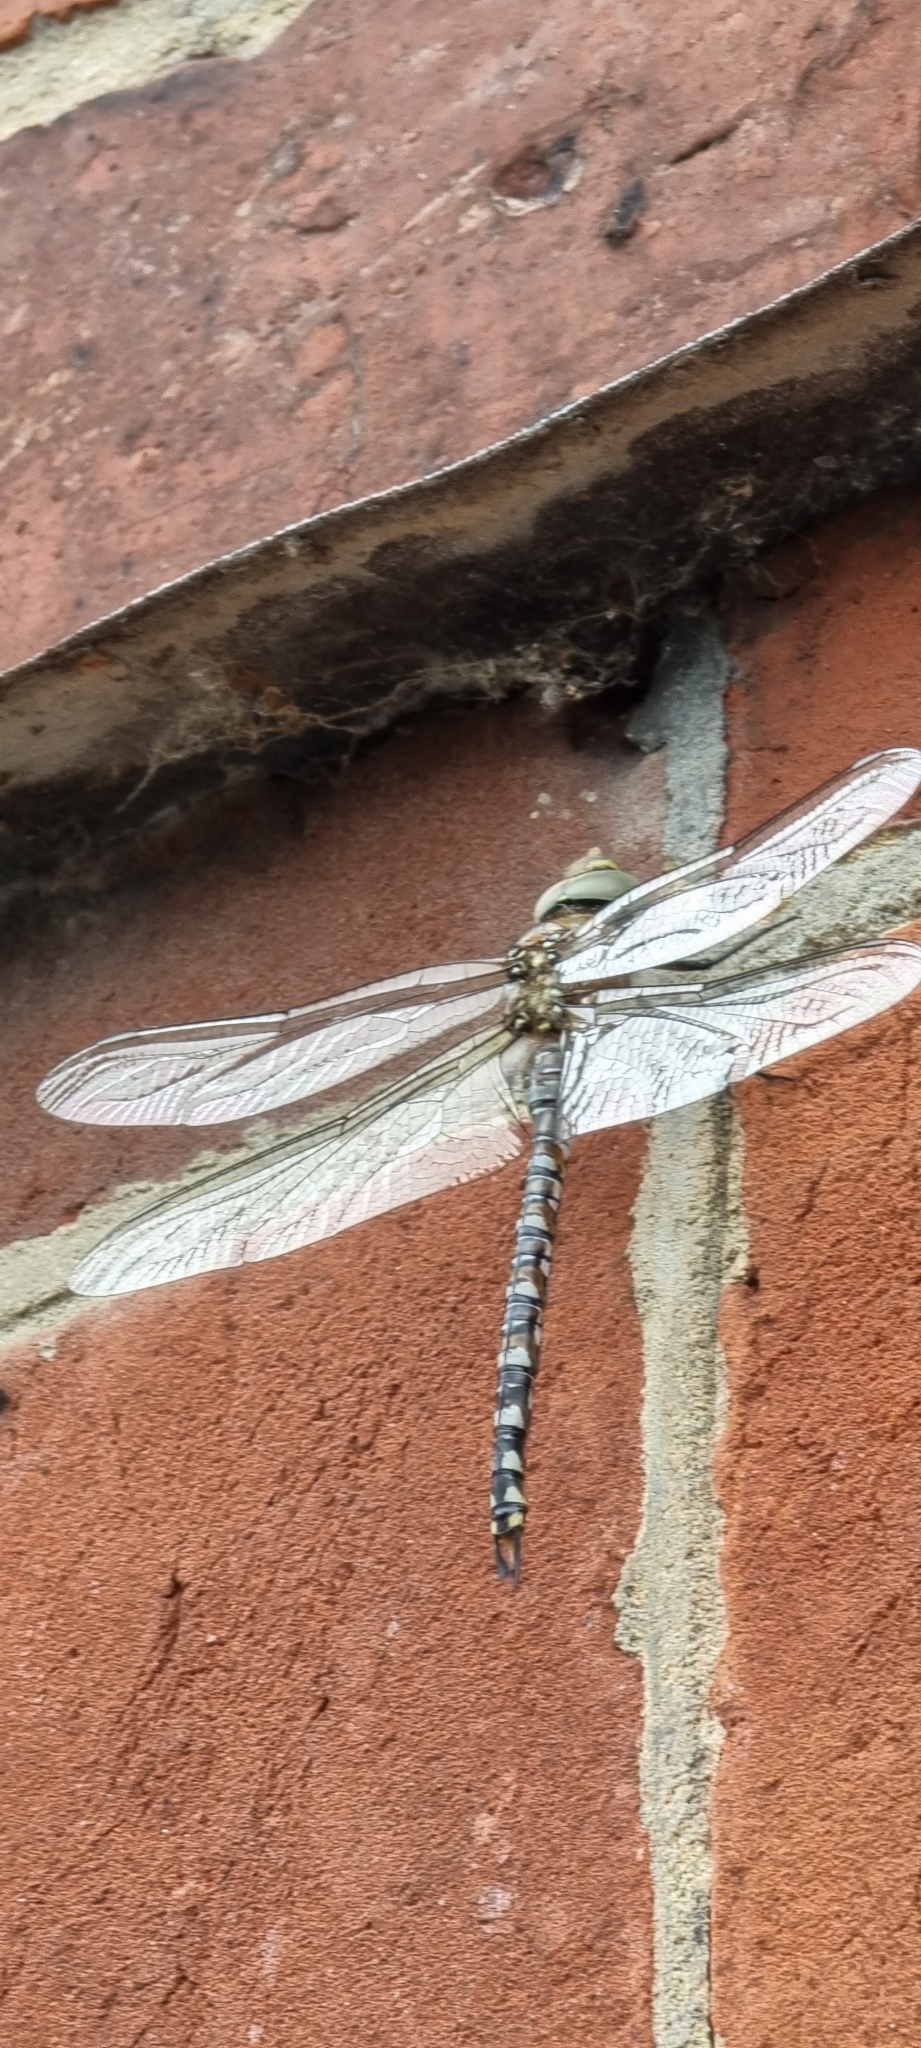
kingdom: Animalia
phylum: Arthropoda
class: Insecta
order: Odonata
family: Aeshnidae
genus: Aeshna
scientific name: Aeshna mixta
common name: Migrant hawker
